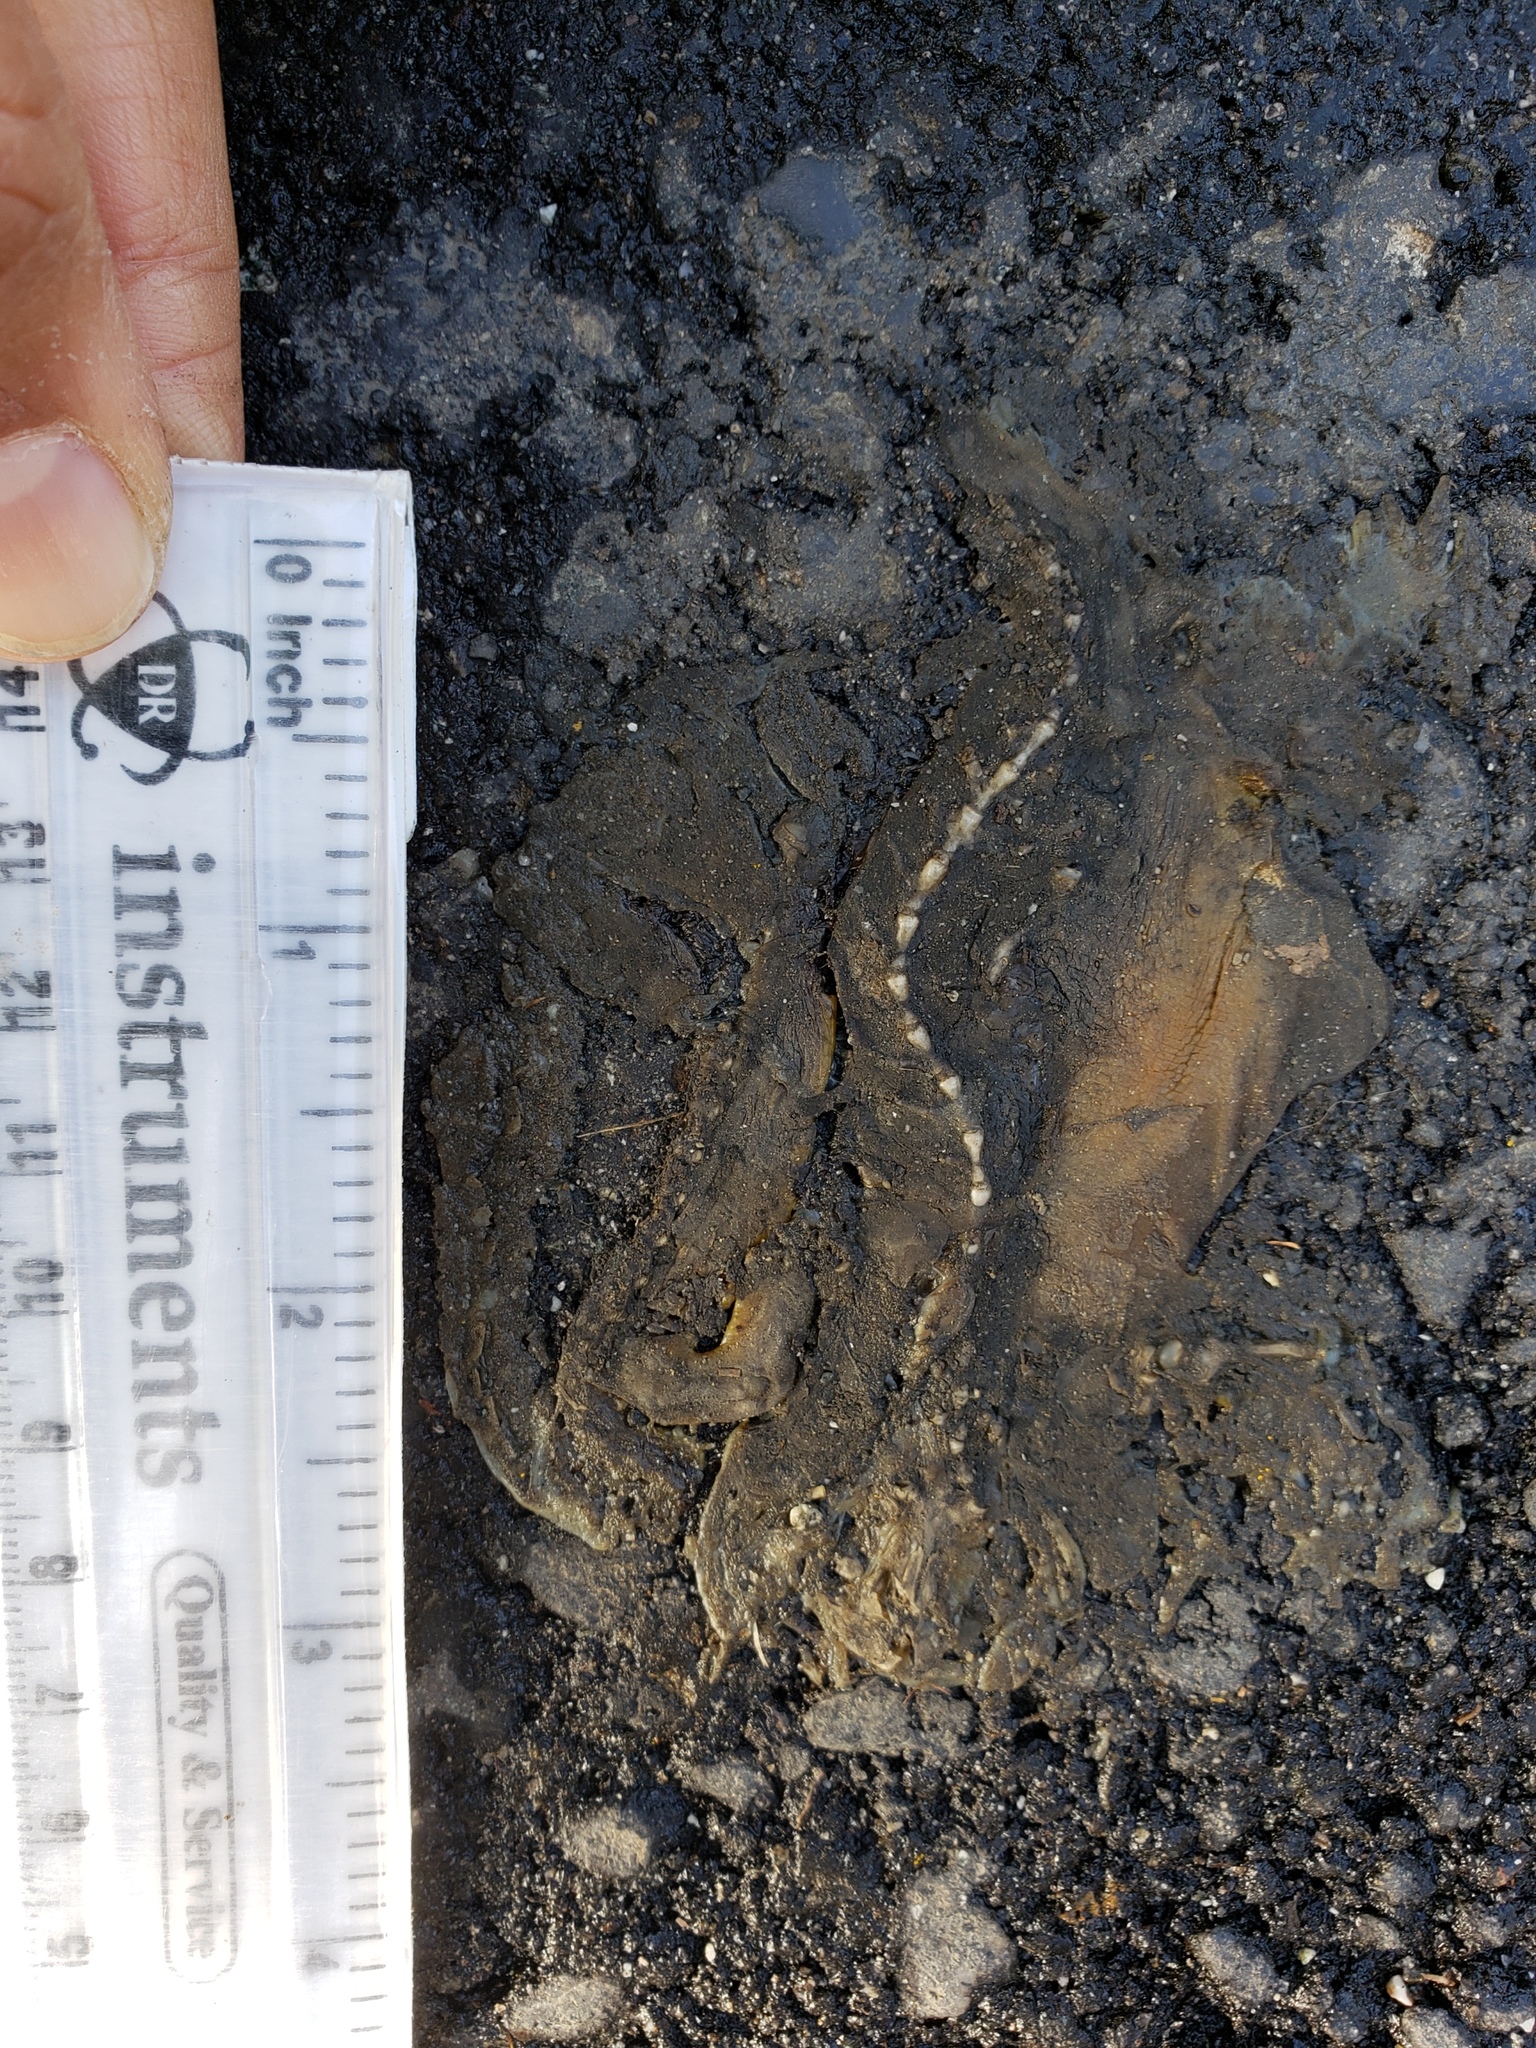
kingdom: Animalia
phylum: Chordata
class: Amphibia
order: Caudata
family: Salamandridae
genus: Taricha
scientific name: Taricha
